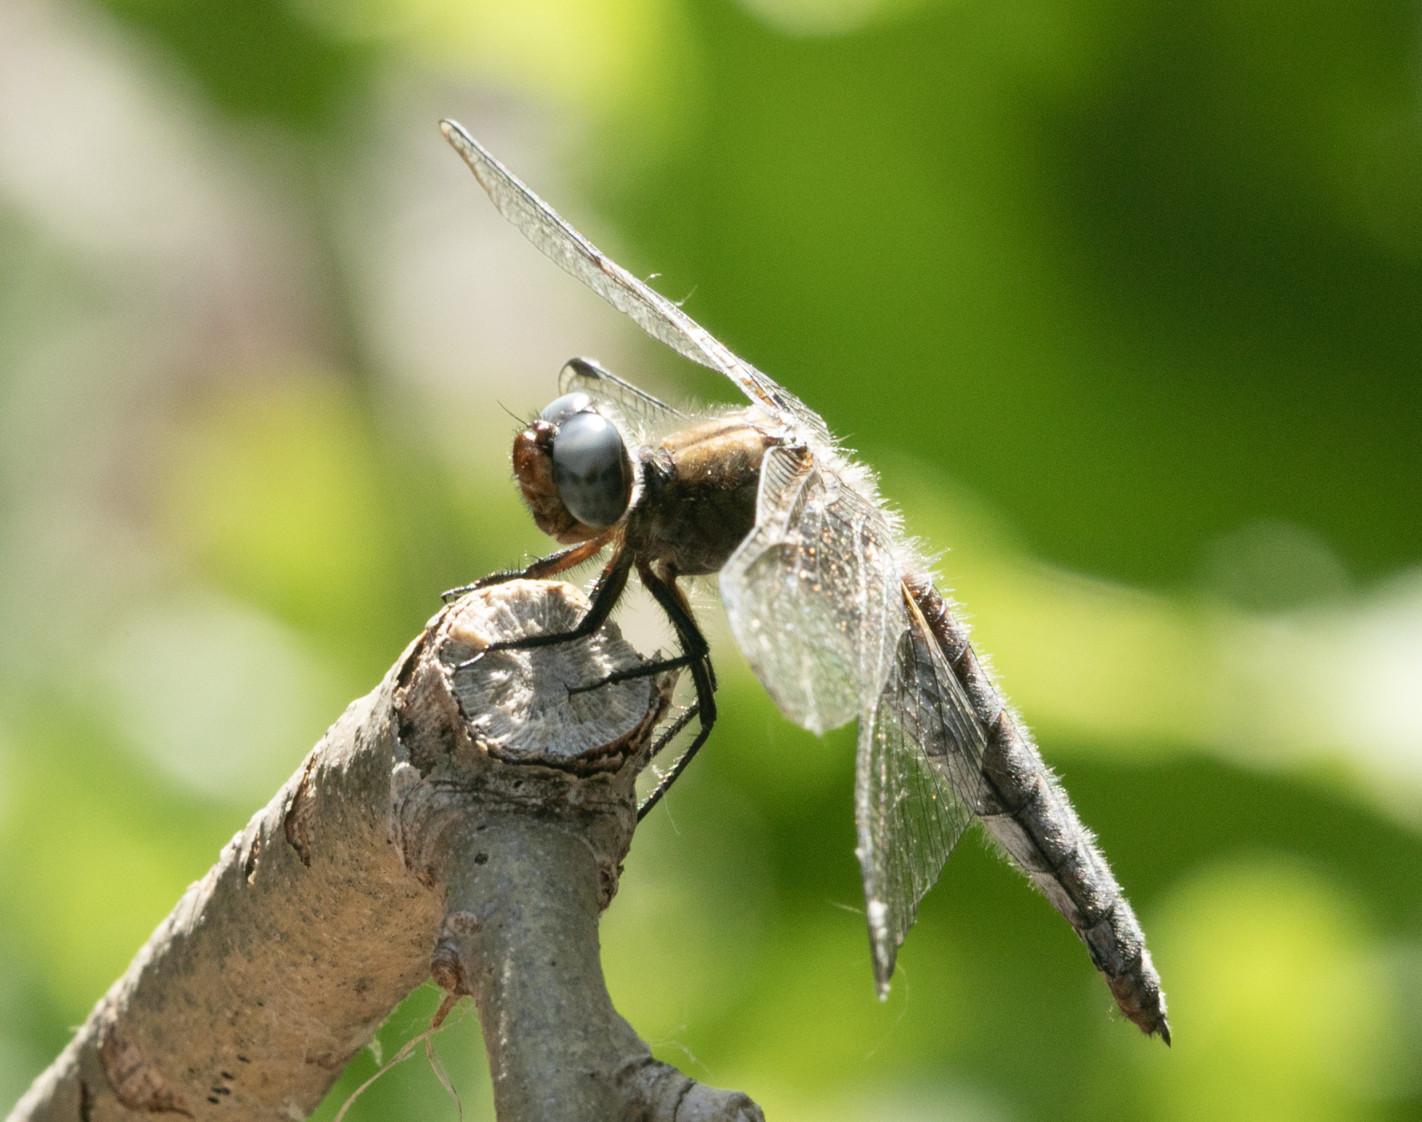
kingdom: Animalia
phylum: Arthropoda
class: Insecta
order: Odonata
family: Libellulidae
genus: Libellula
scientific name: Libellula fulva
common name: Blue chaser
